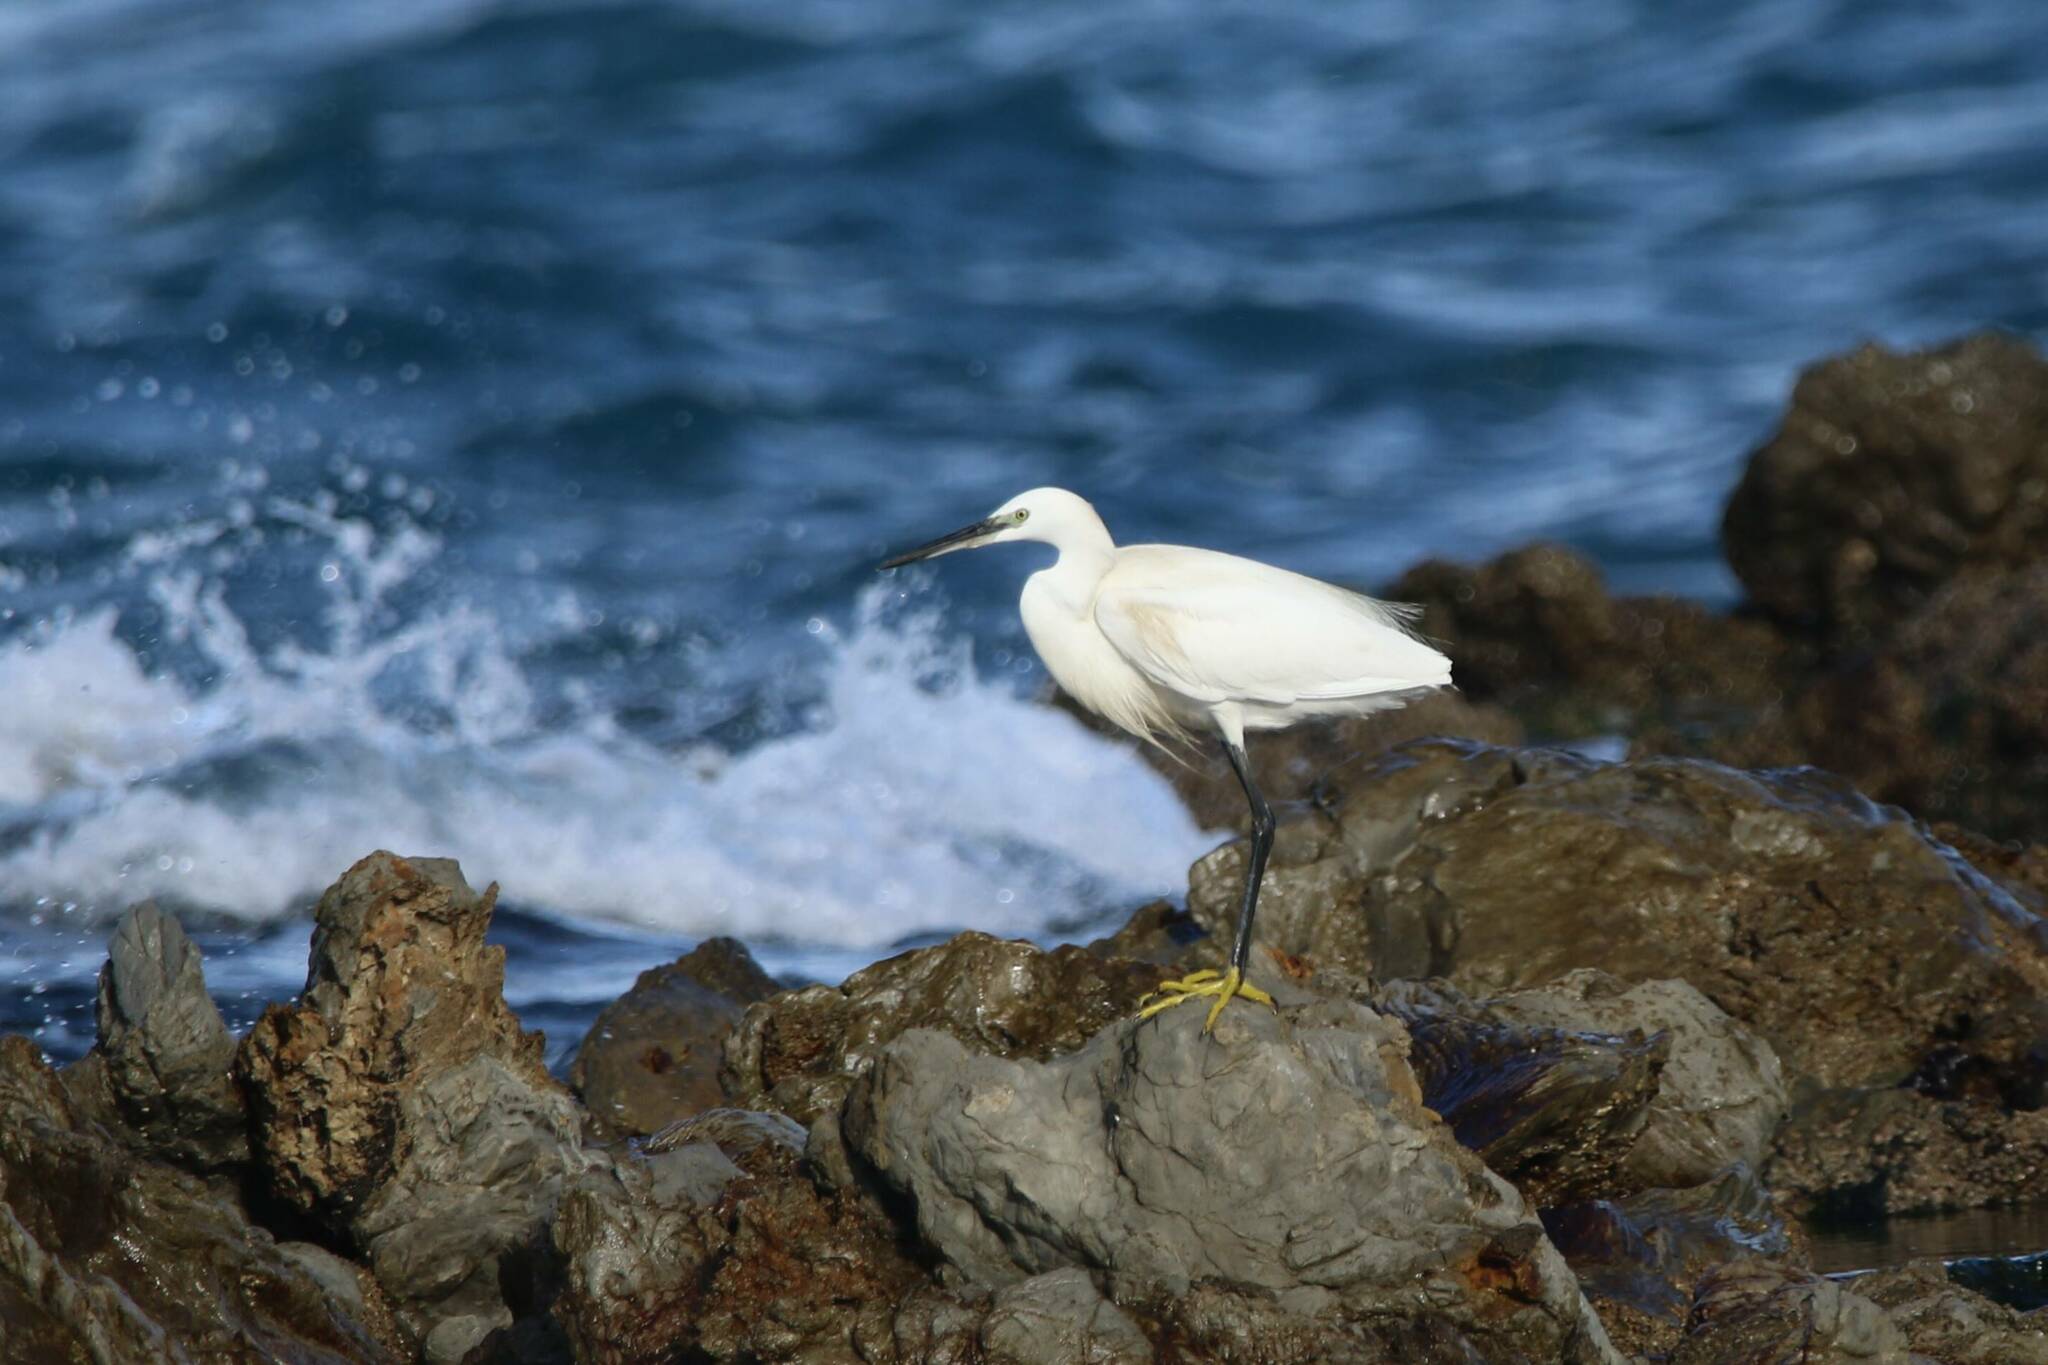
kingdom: Animalia
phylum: Chordata
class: Aves
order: Pelecaniformes
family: Ardeidae
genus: Egretta
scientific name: Egretta garzetta
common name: Little egret
